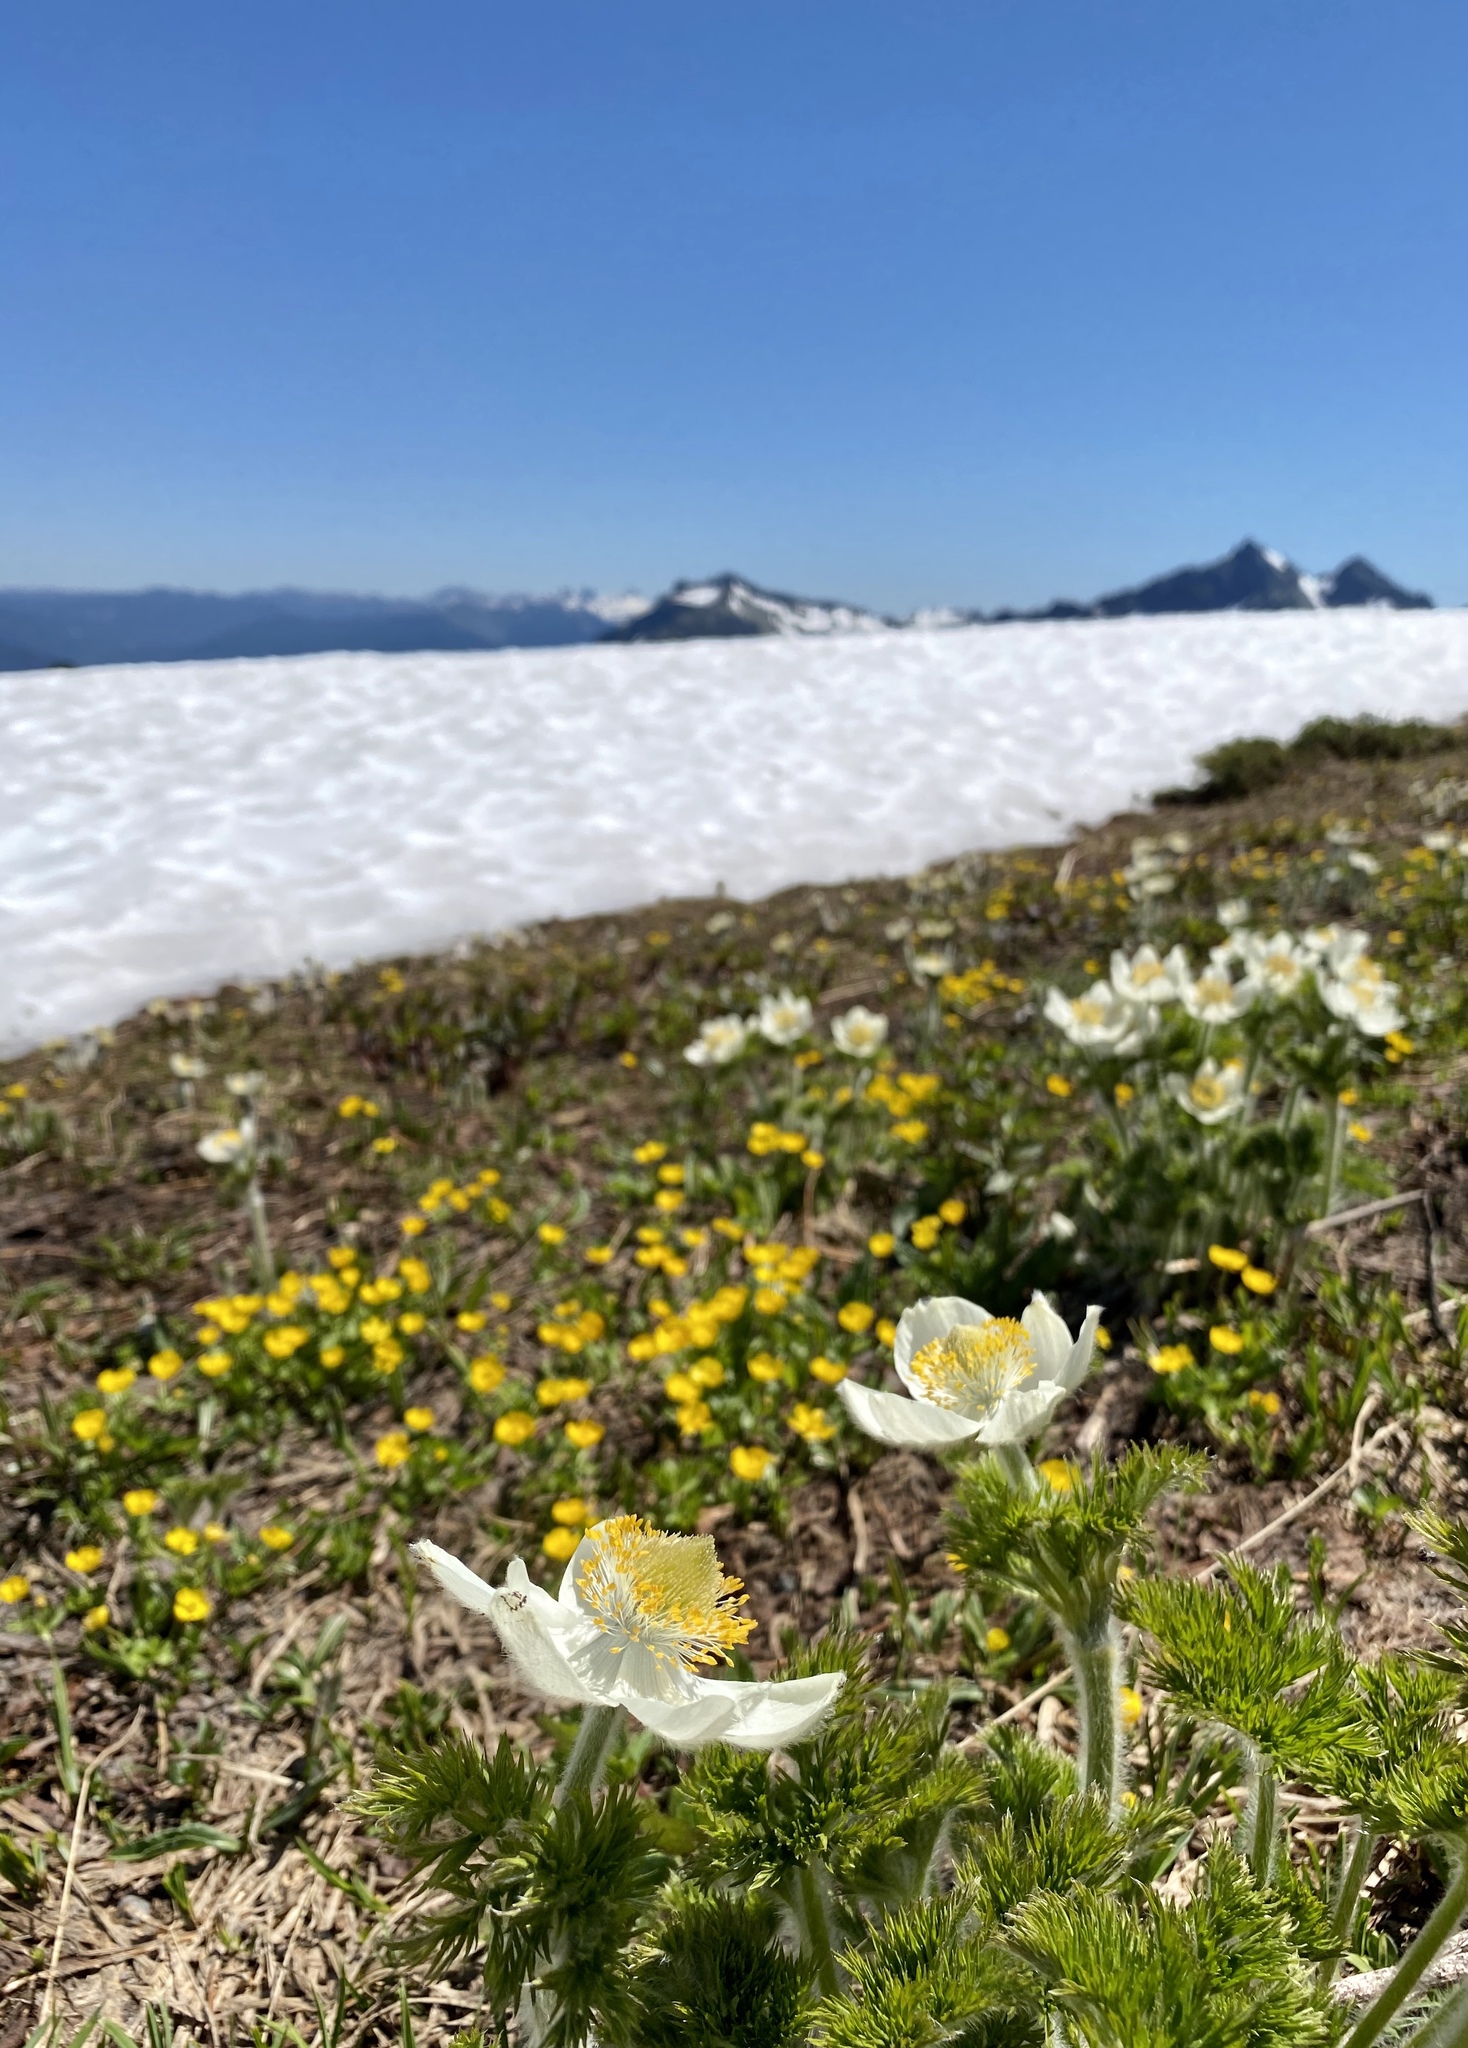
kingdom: Plantae
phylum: Tracheophyta
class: Magnoliopsida
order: Ranunculales
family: Ranunculaceae
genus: Pulsatilla
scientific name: Pulsatilla occidentalis
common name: Mountain pasqueflower
